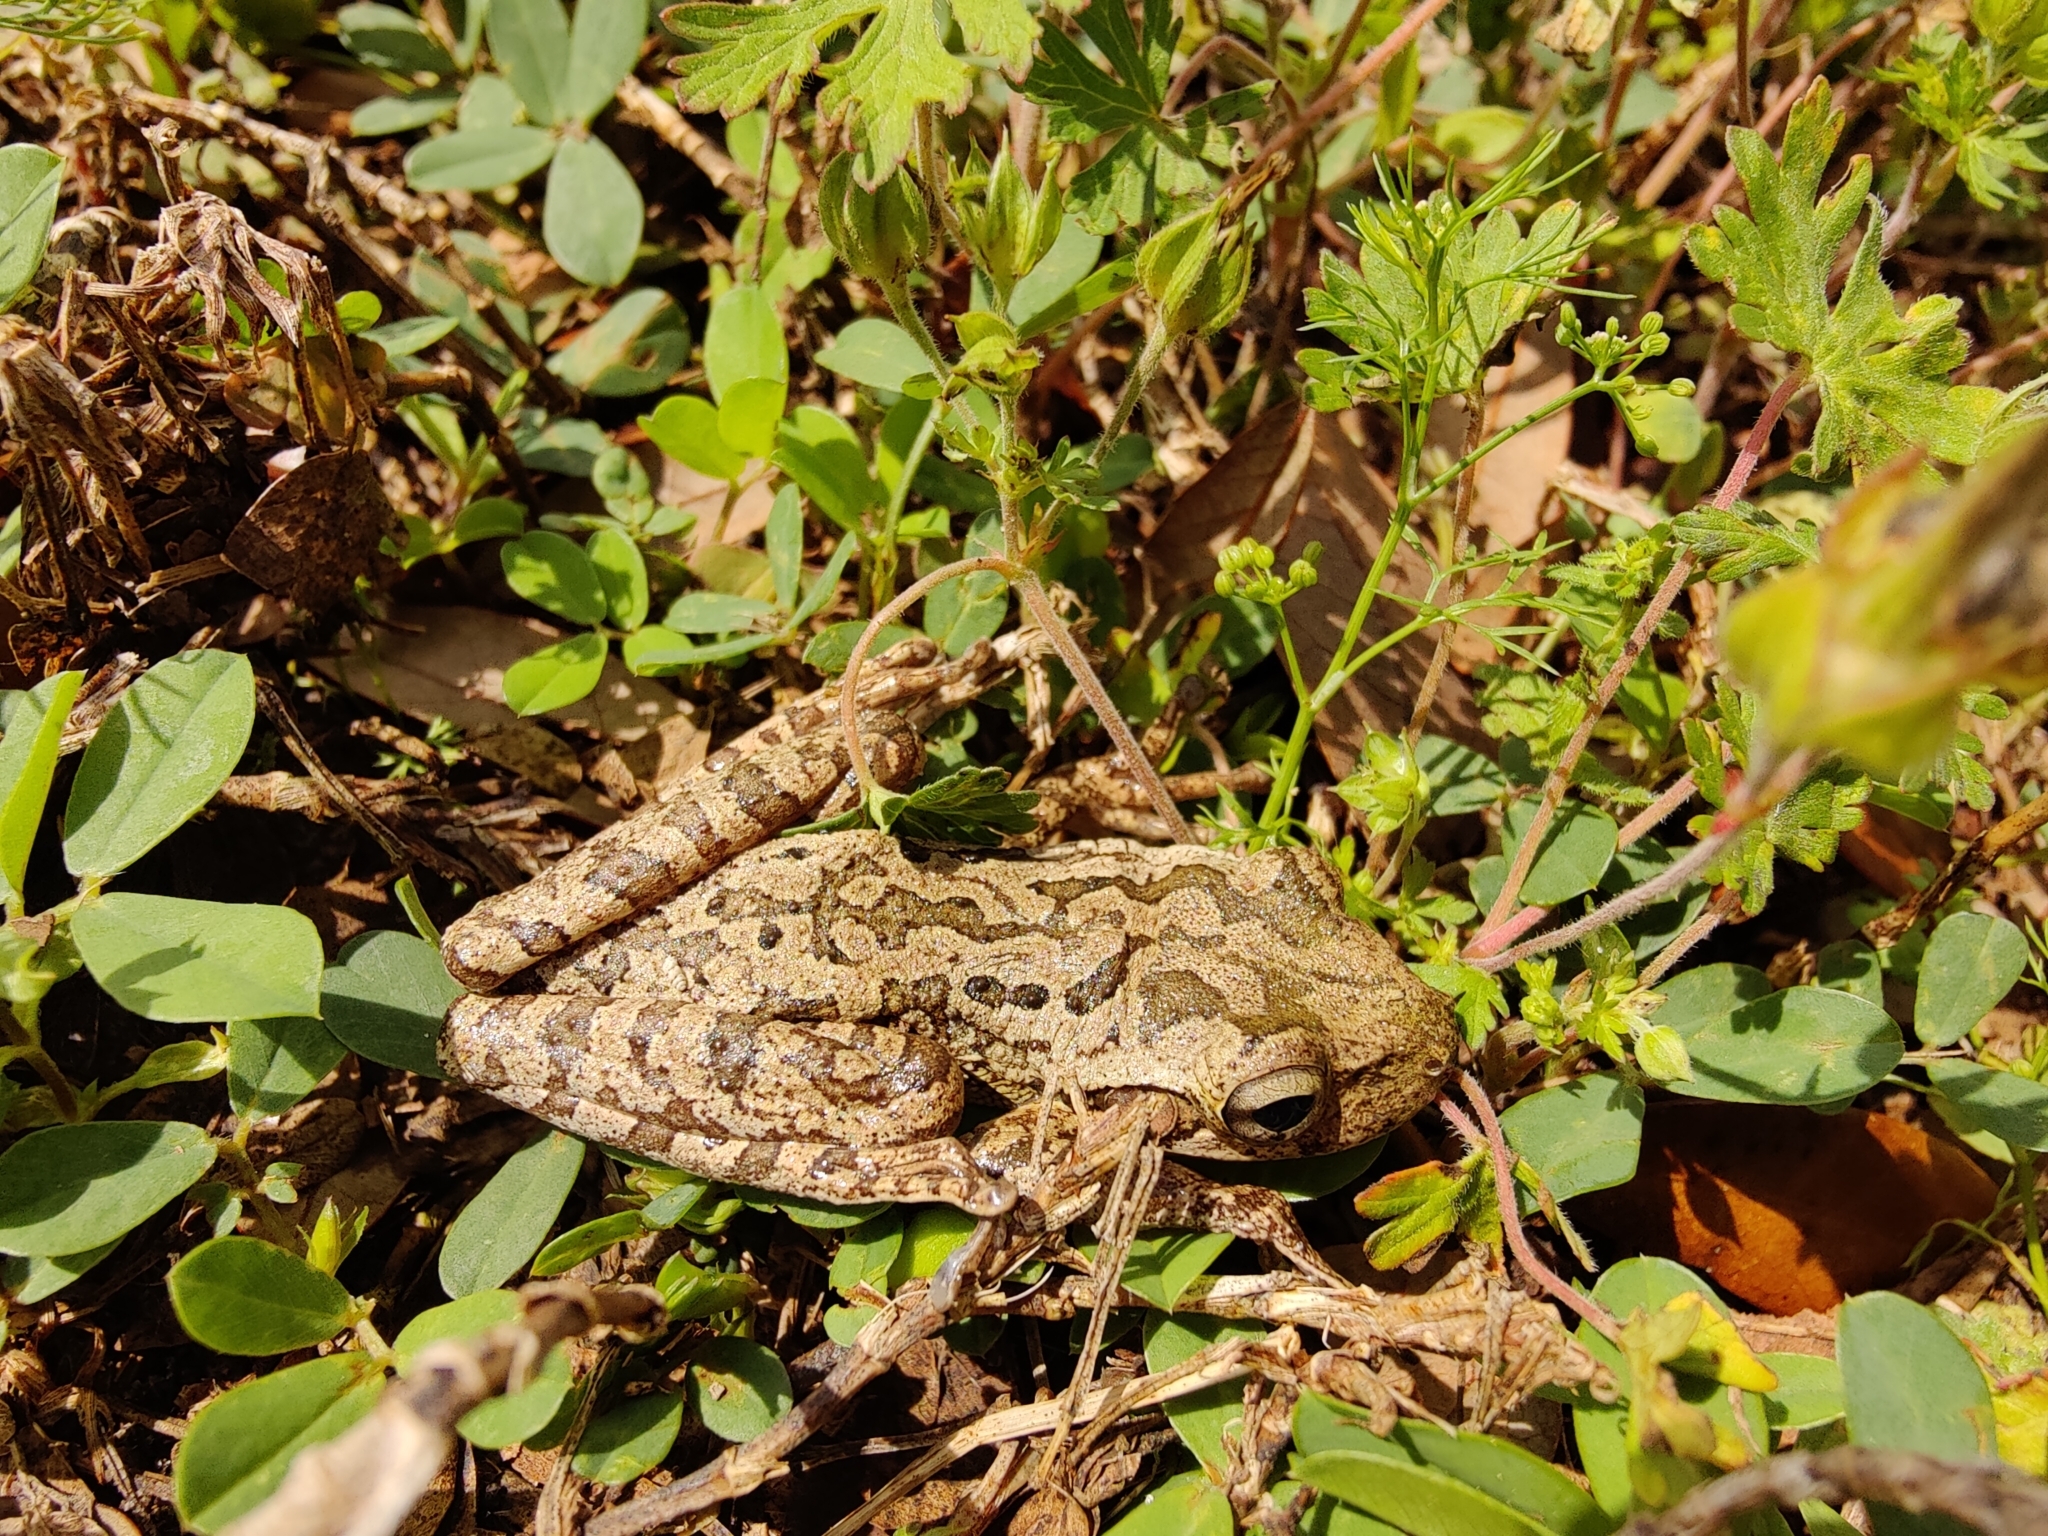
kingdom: Animalia
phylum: Chordata
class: Amphibia
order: Anura
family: Hylidae
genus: Osteopilus
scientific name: Osteopilus septentrionalis
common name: Cuban treefrog
